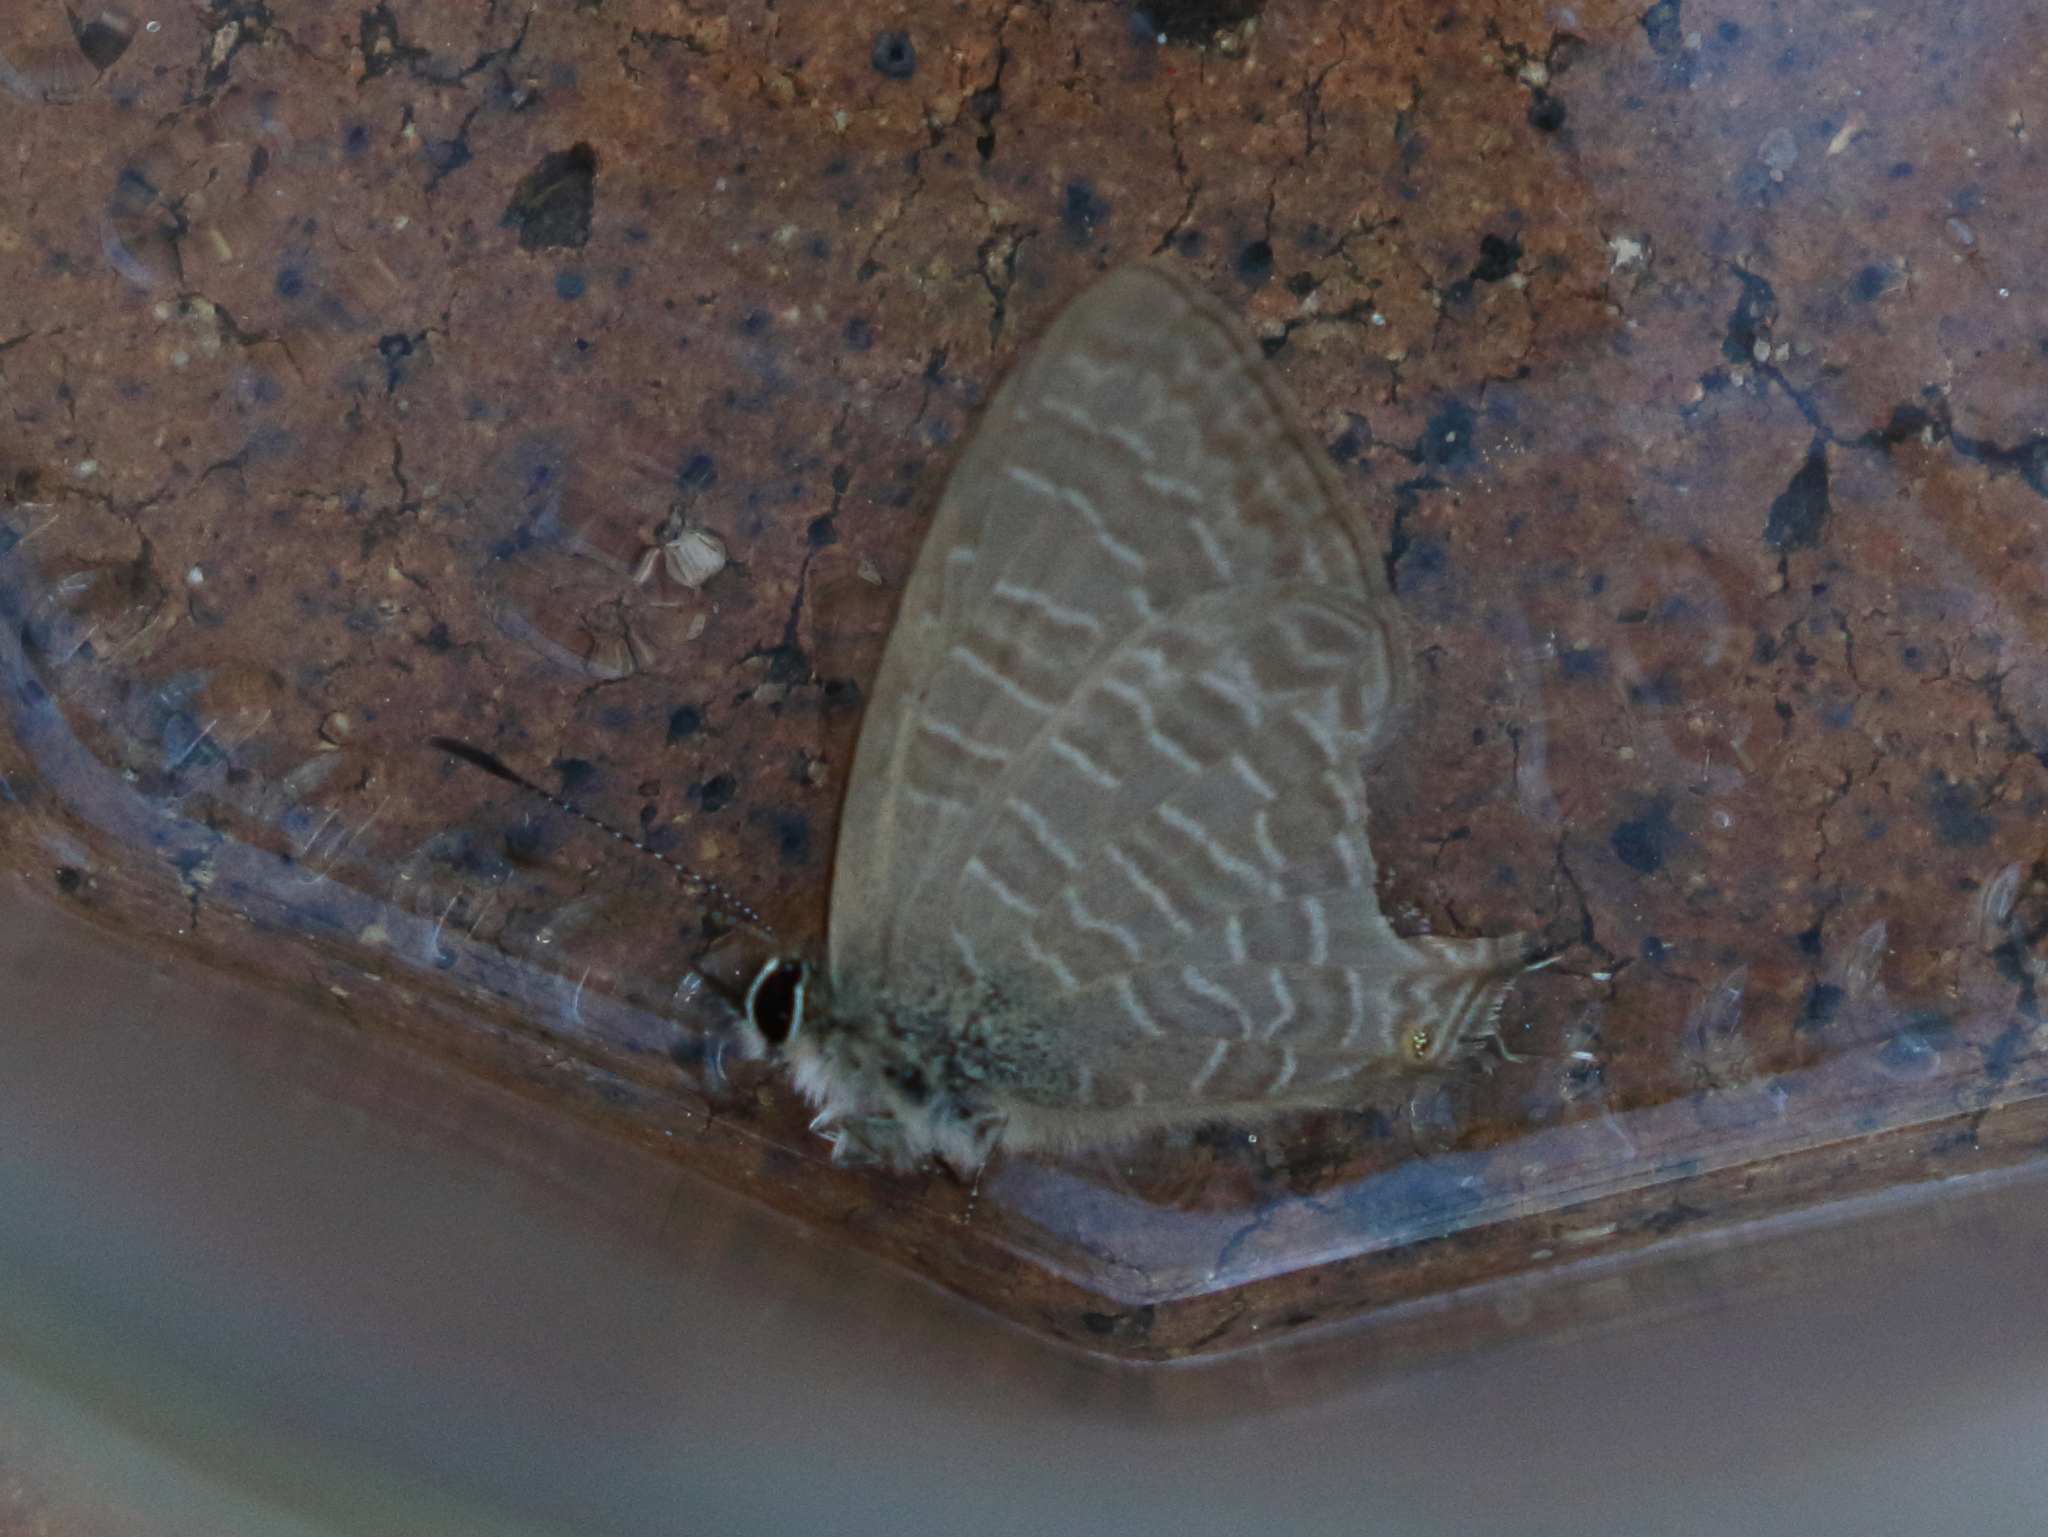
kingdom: Animalia
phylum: Arthropoda
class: Insecta
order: Lepidoptera
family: Lycaenidae
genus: Nacaduba
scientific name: Nacaduba berenice
